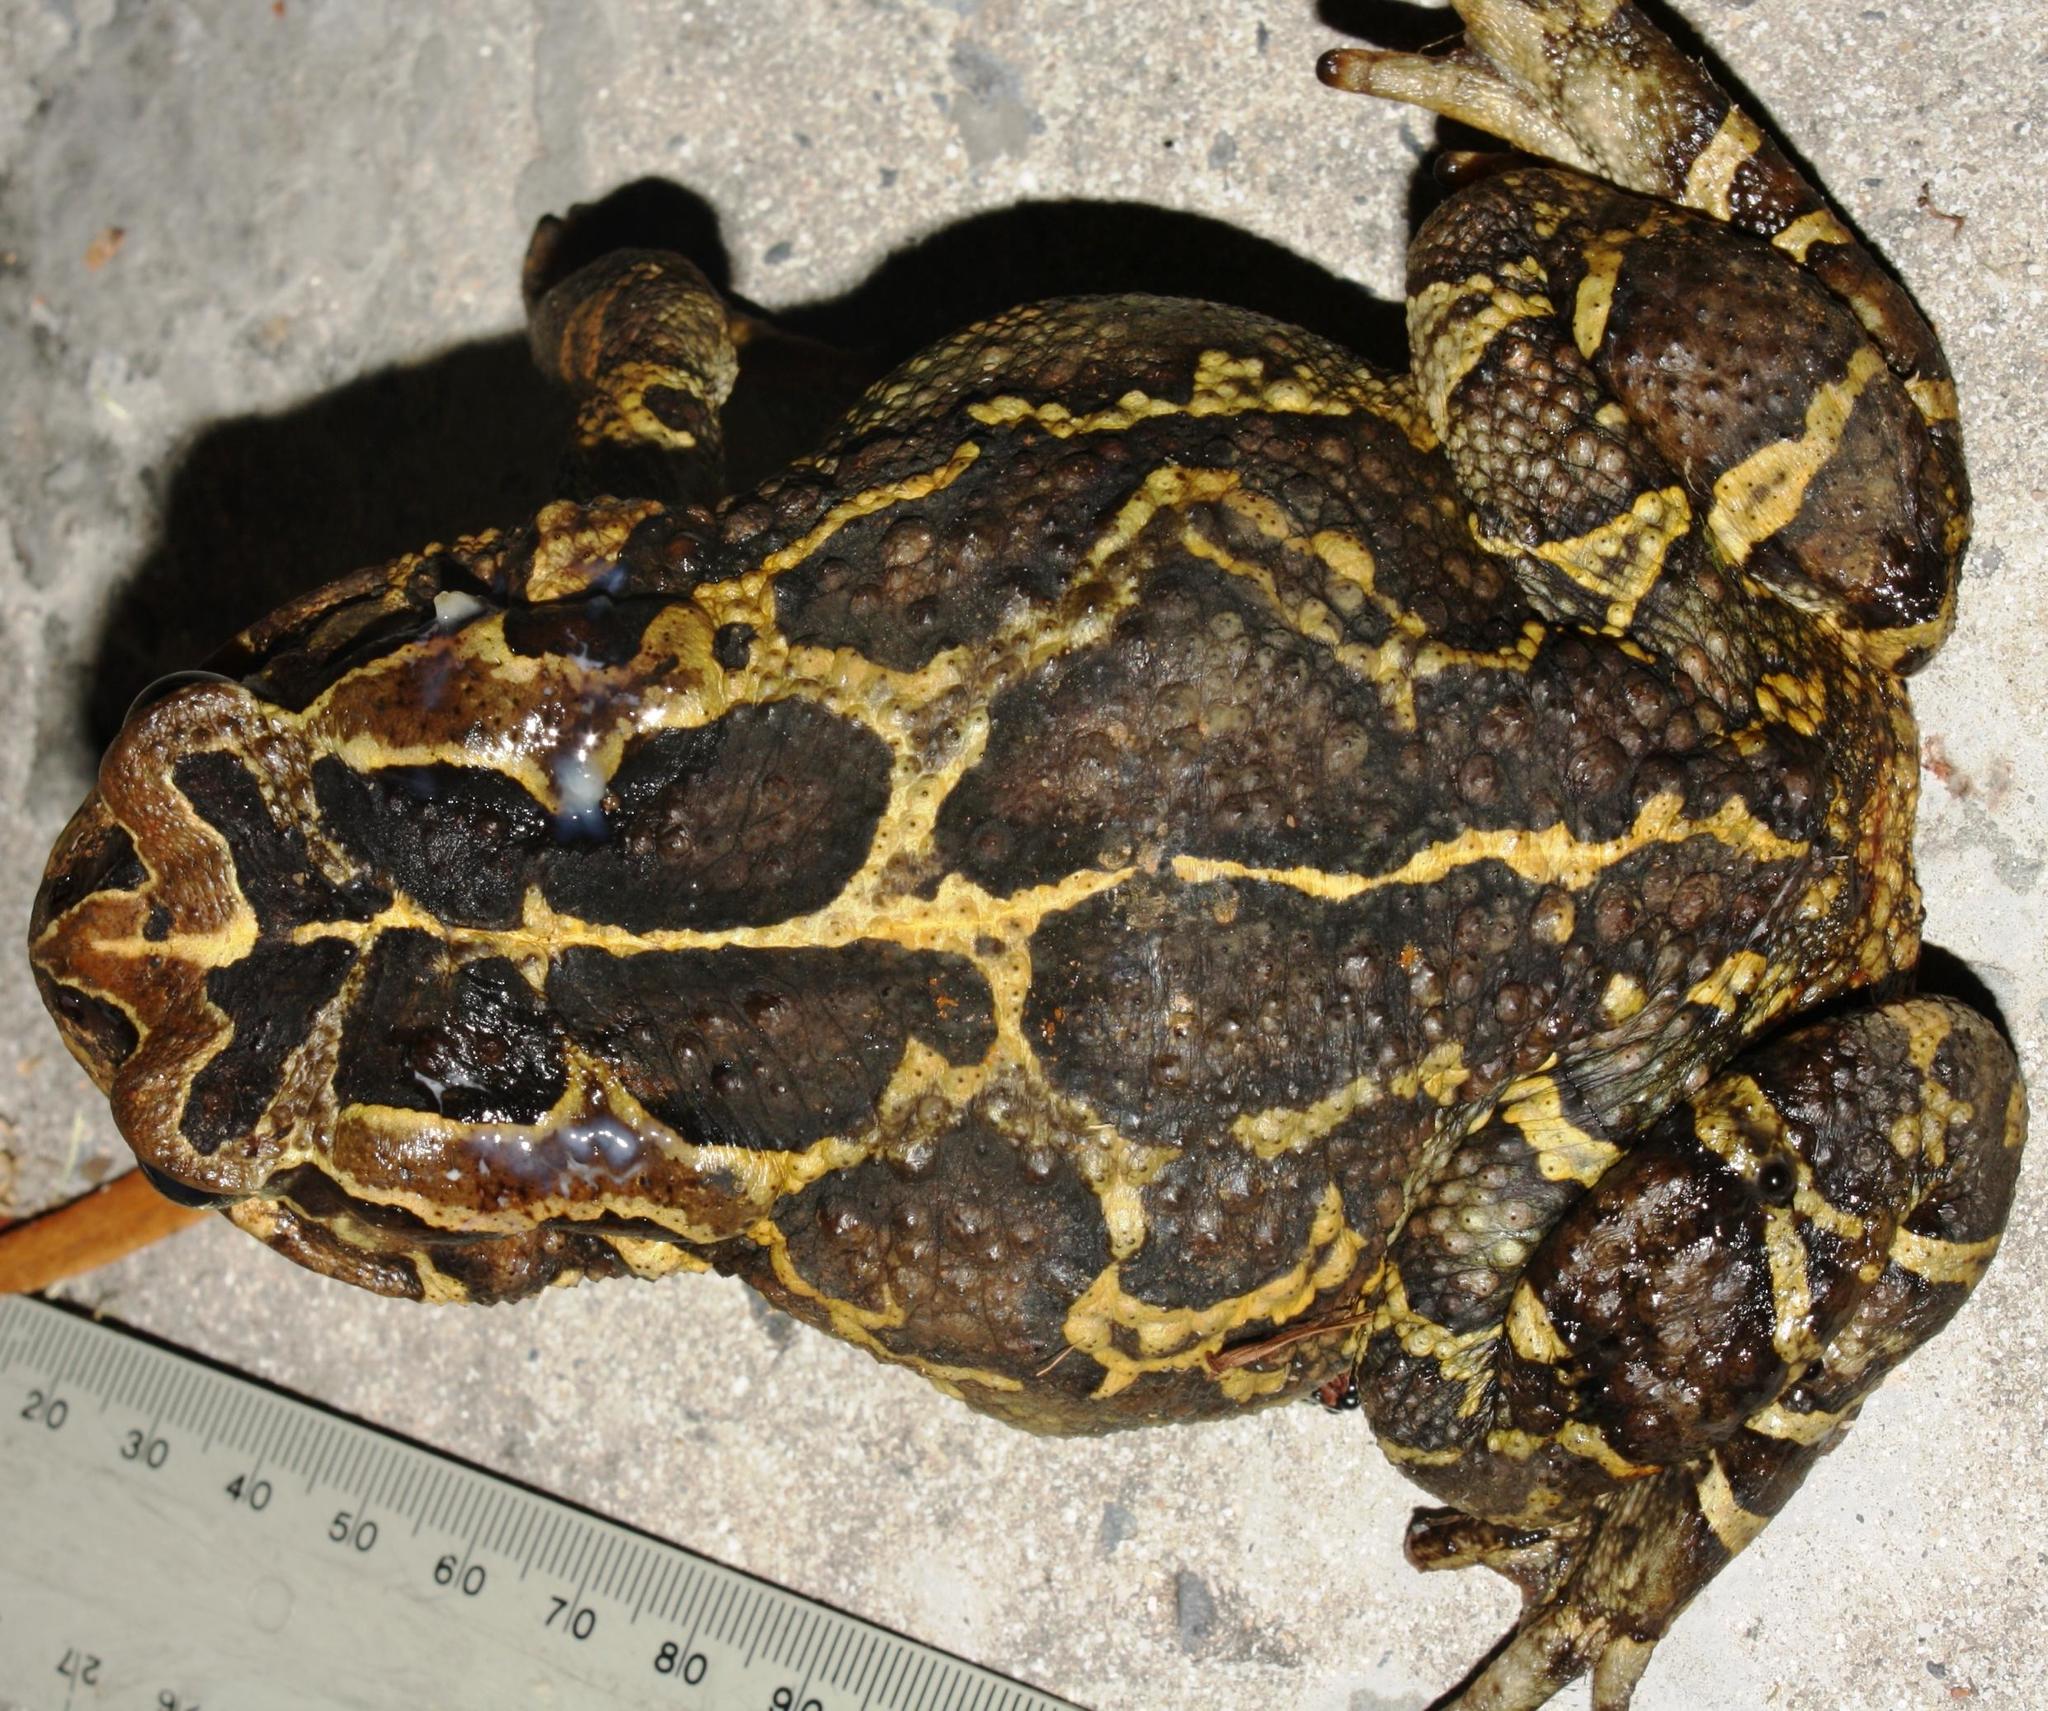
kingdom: Animalia
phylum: Chordata
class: Amphibia
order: Anura
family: Bufonidae
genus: Sclerophrys
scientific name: Sclerophrys pantherina
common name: Panther toad
